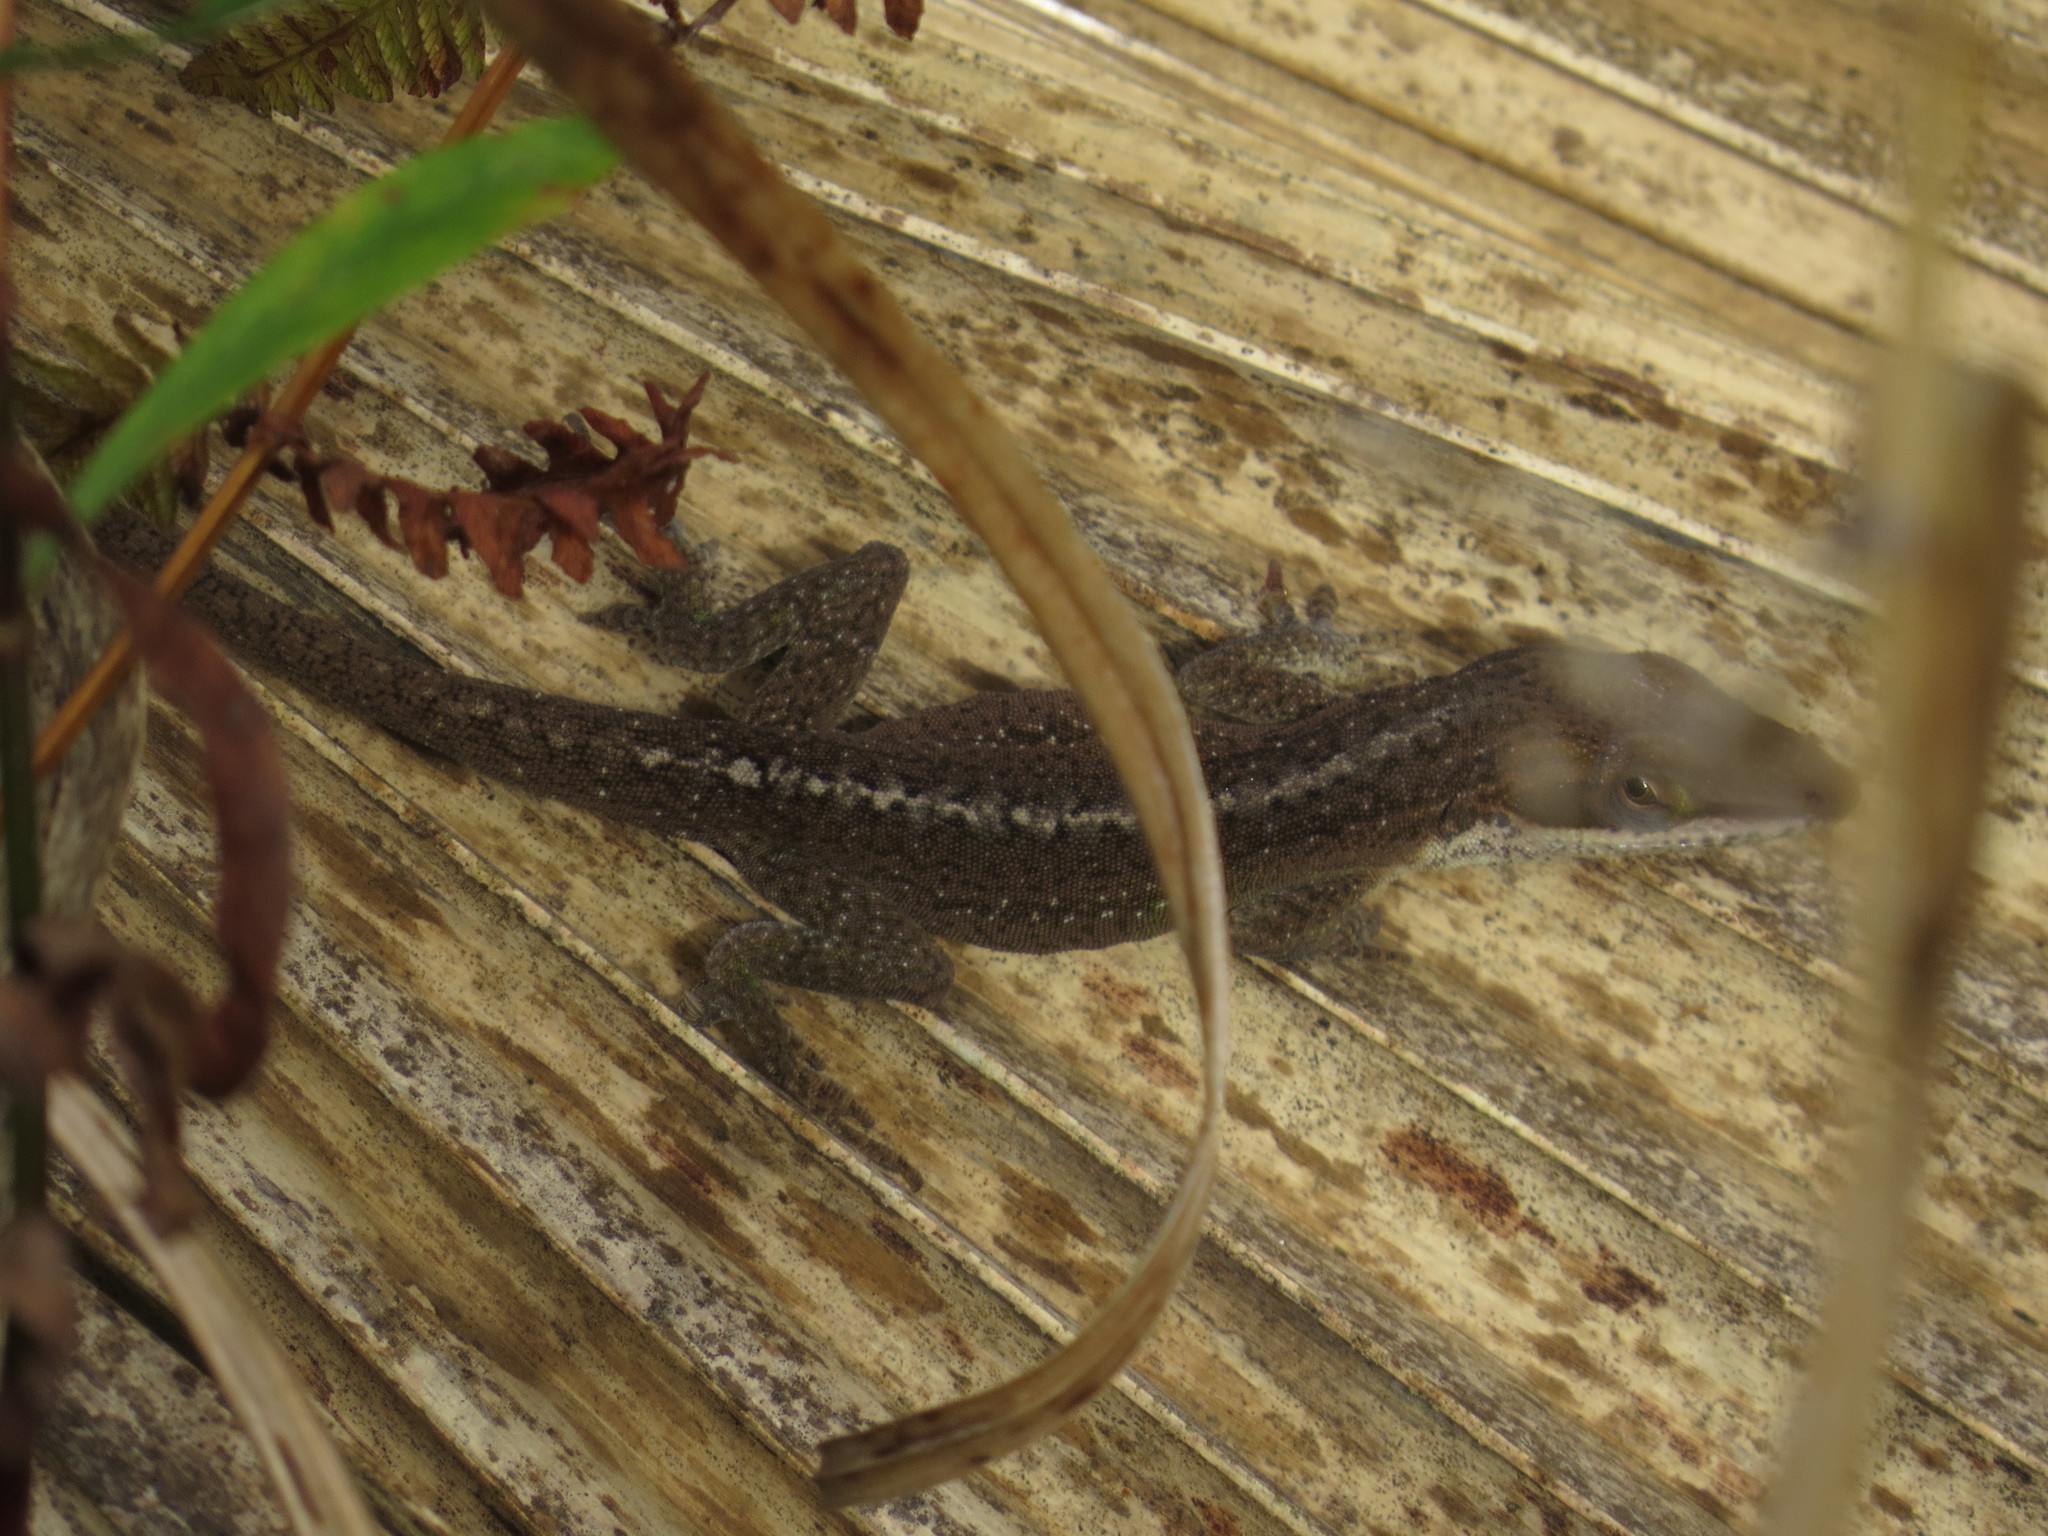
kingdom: Animalia
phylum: Chordata
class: Squamata
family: Dactyloidae
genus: Anolis
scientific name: Anolis carolinensis
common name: Green anole
